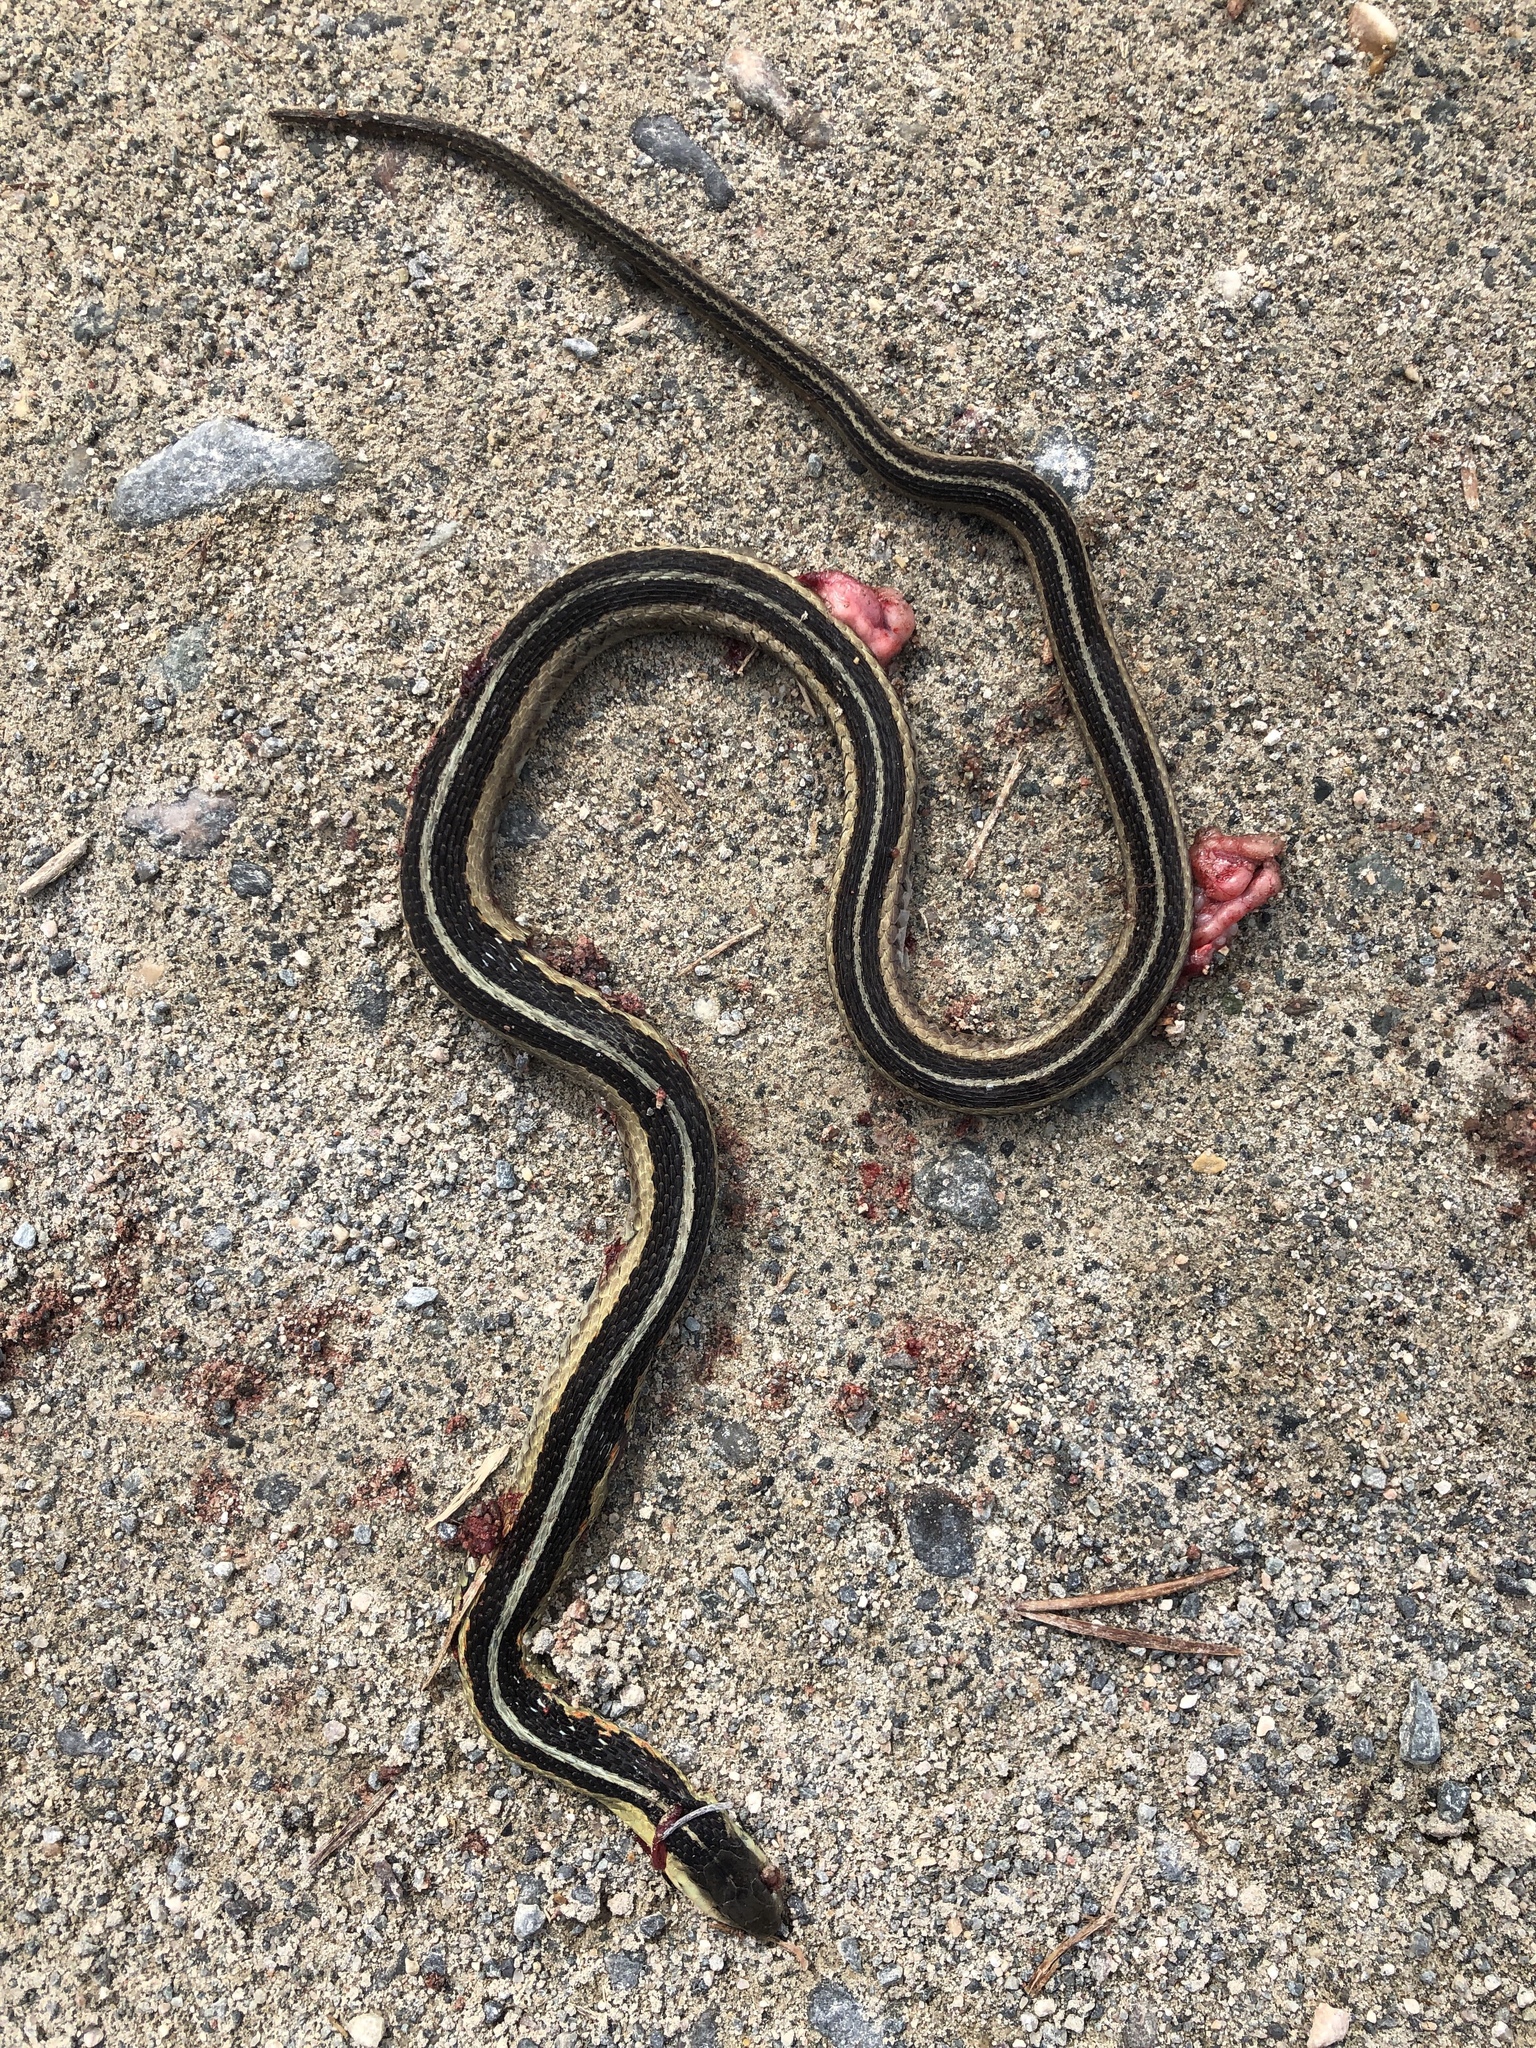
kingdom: Animalia
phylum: Chordata
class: Squamata
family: Colubridae
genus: Thamnophis
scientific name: Thamnophis sirtalis
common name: Common garter snake
